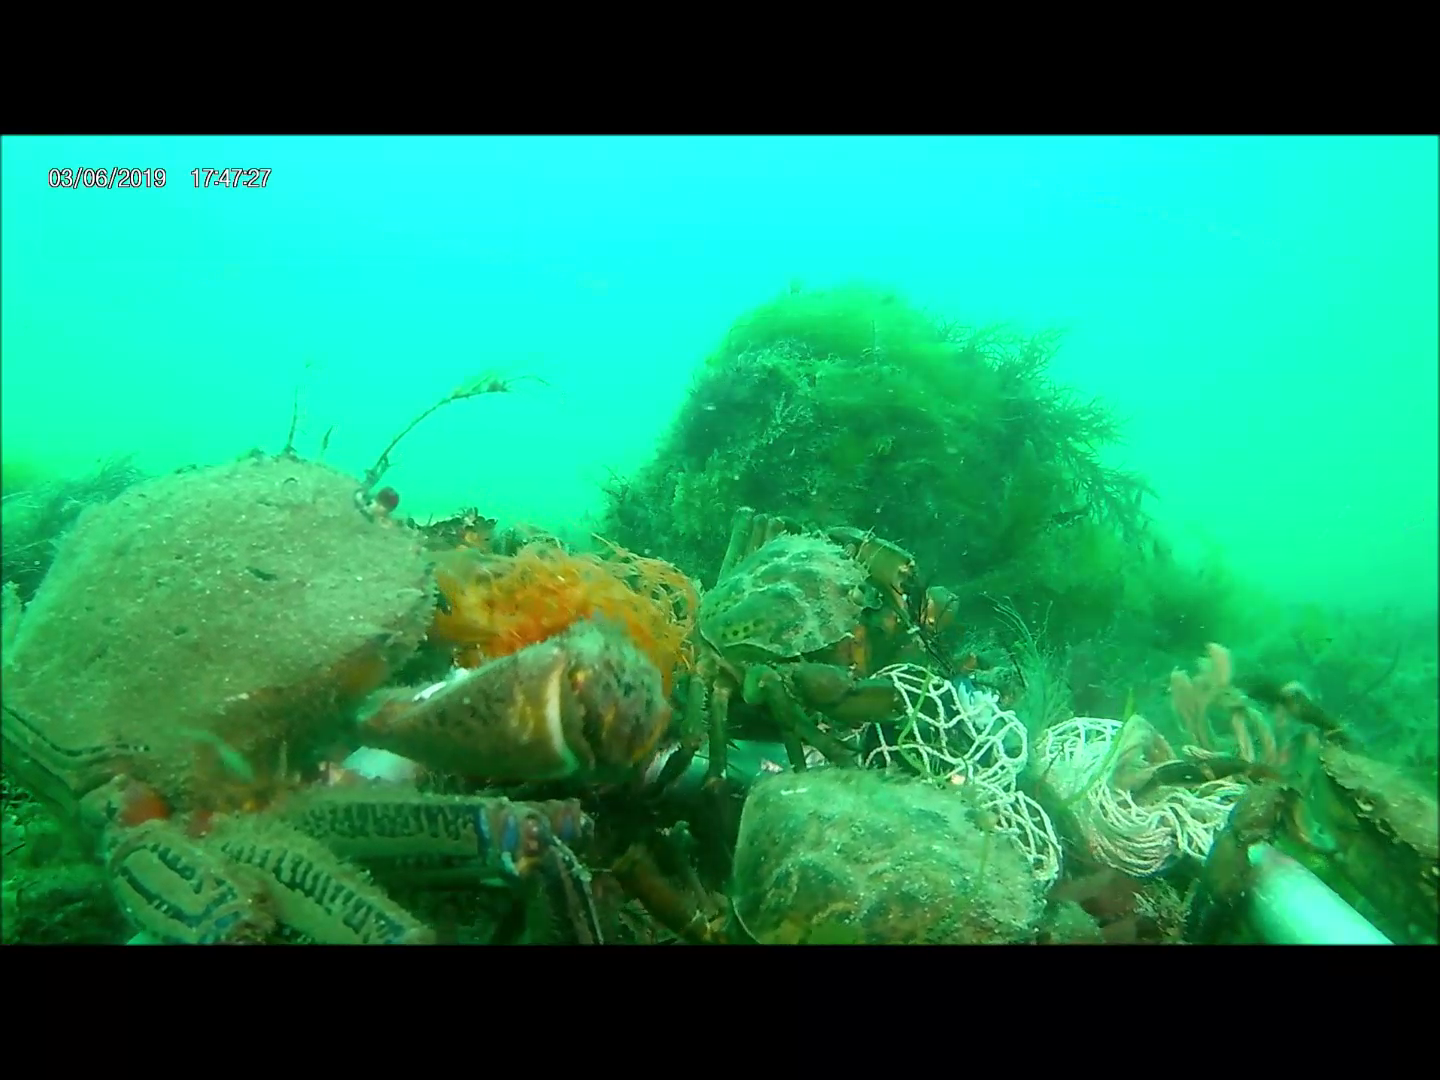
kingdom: Animalia
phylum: Arthropoda
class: Malacostraca
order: Decapoda
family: Carcinidae
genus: Carcinus
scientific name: Carcinus maenas
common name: European green crab
